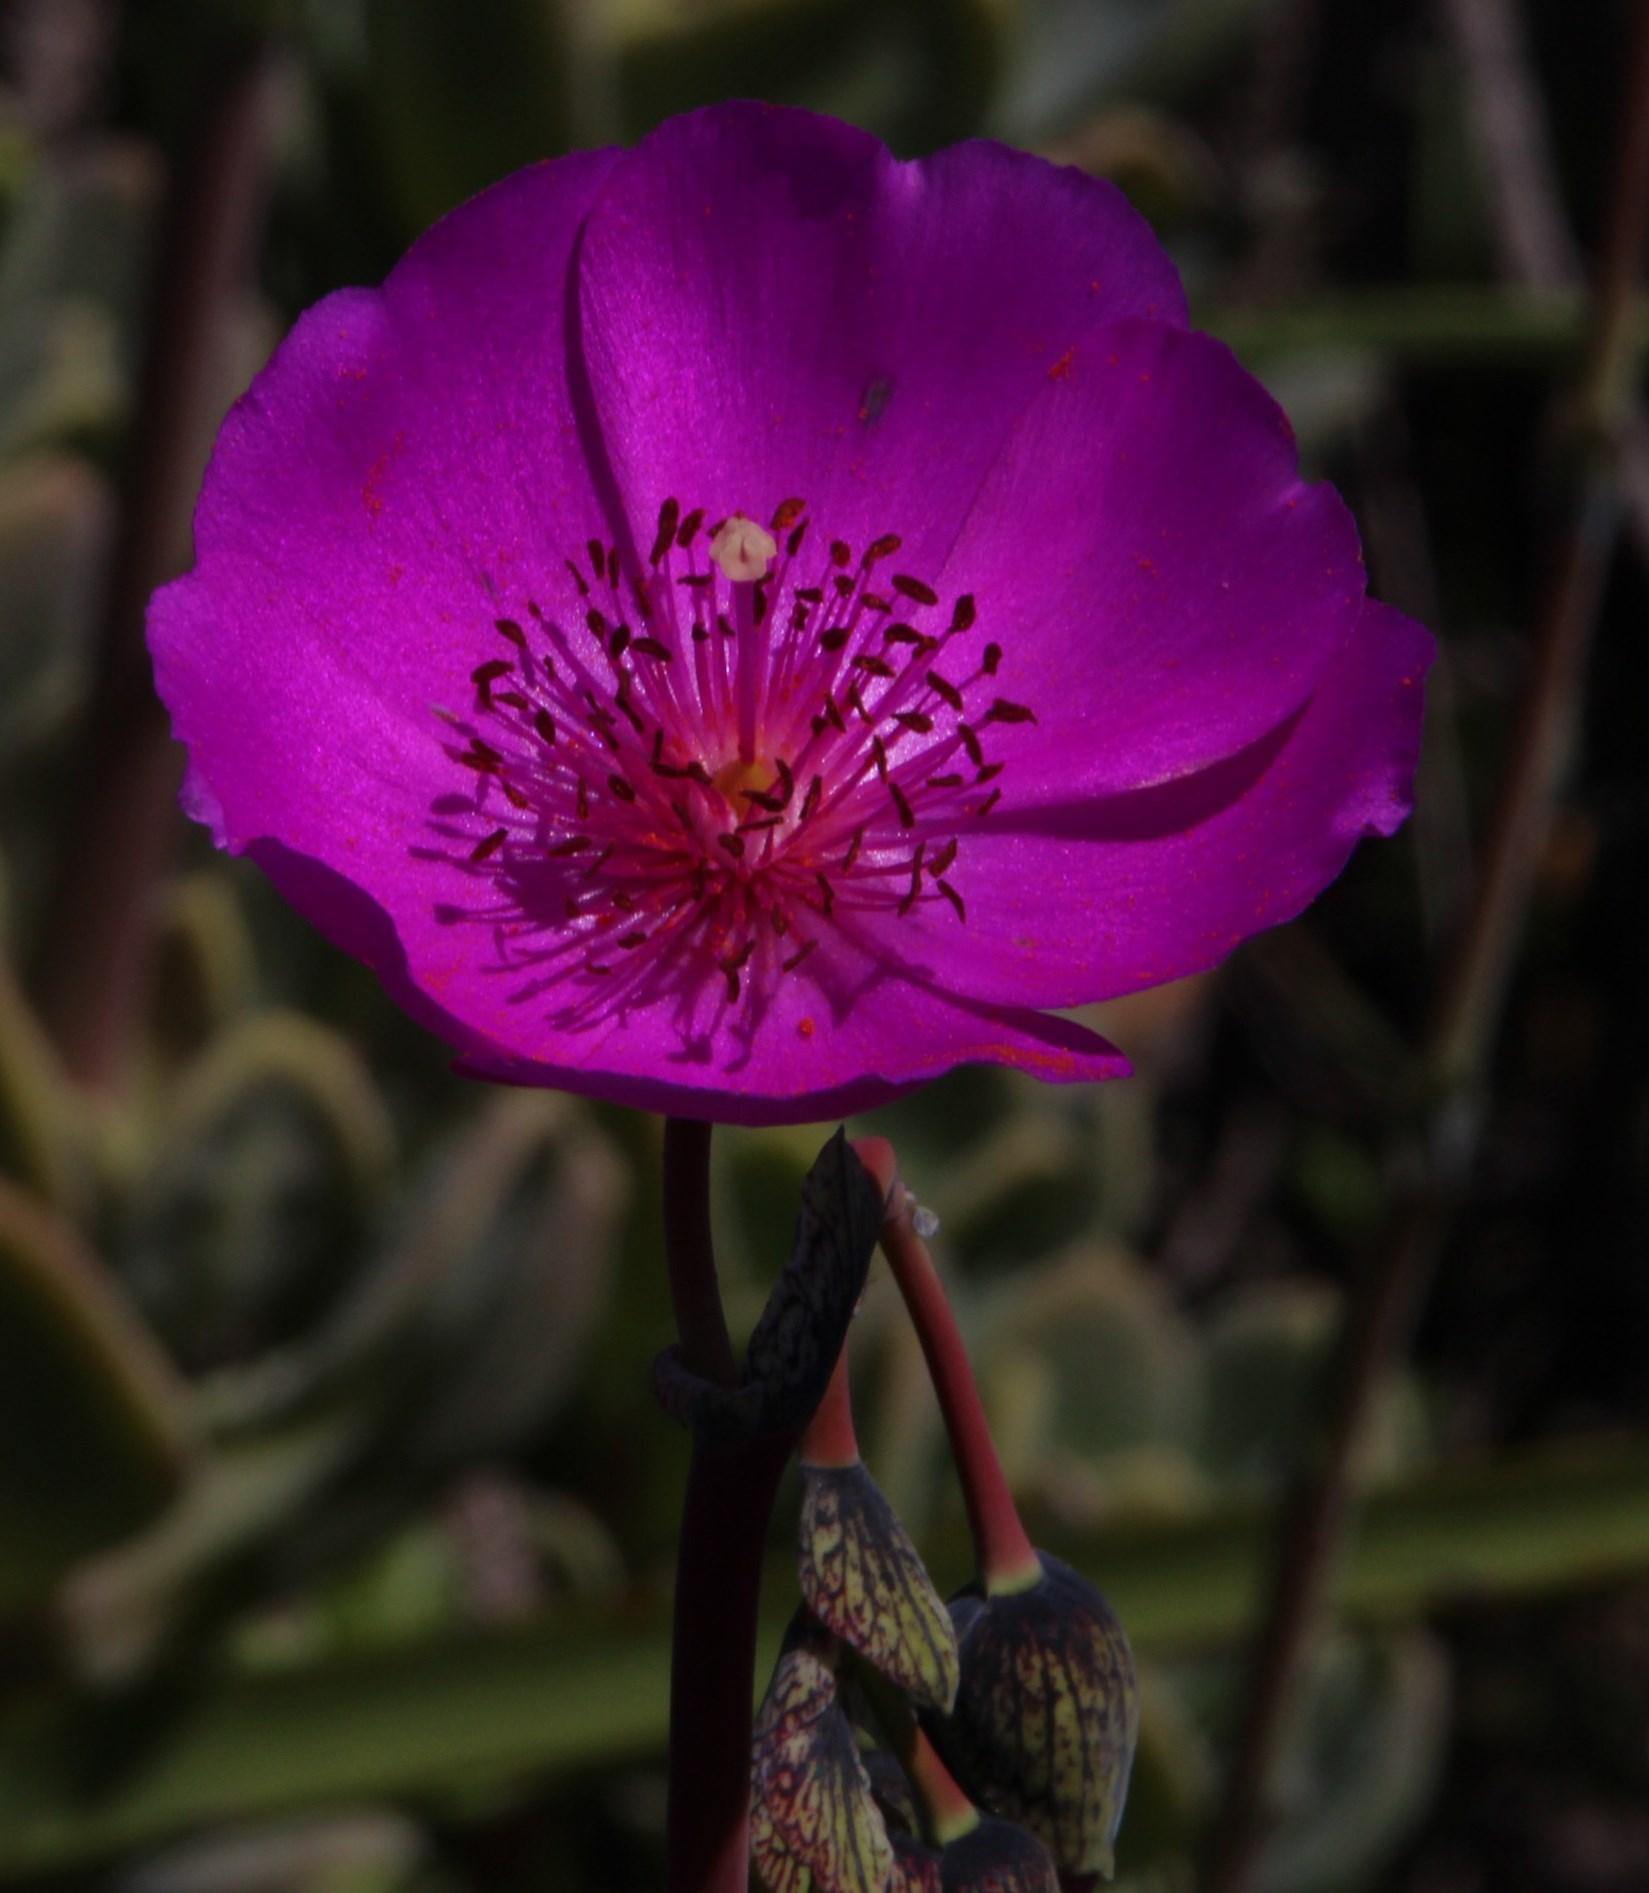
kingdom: Plantae
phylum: Tracheophyta
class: Magnoliopsida
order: Caryophyllales
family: Montiaceae
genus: Cistanthe
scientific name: Cistanthe grandiflora
